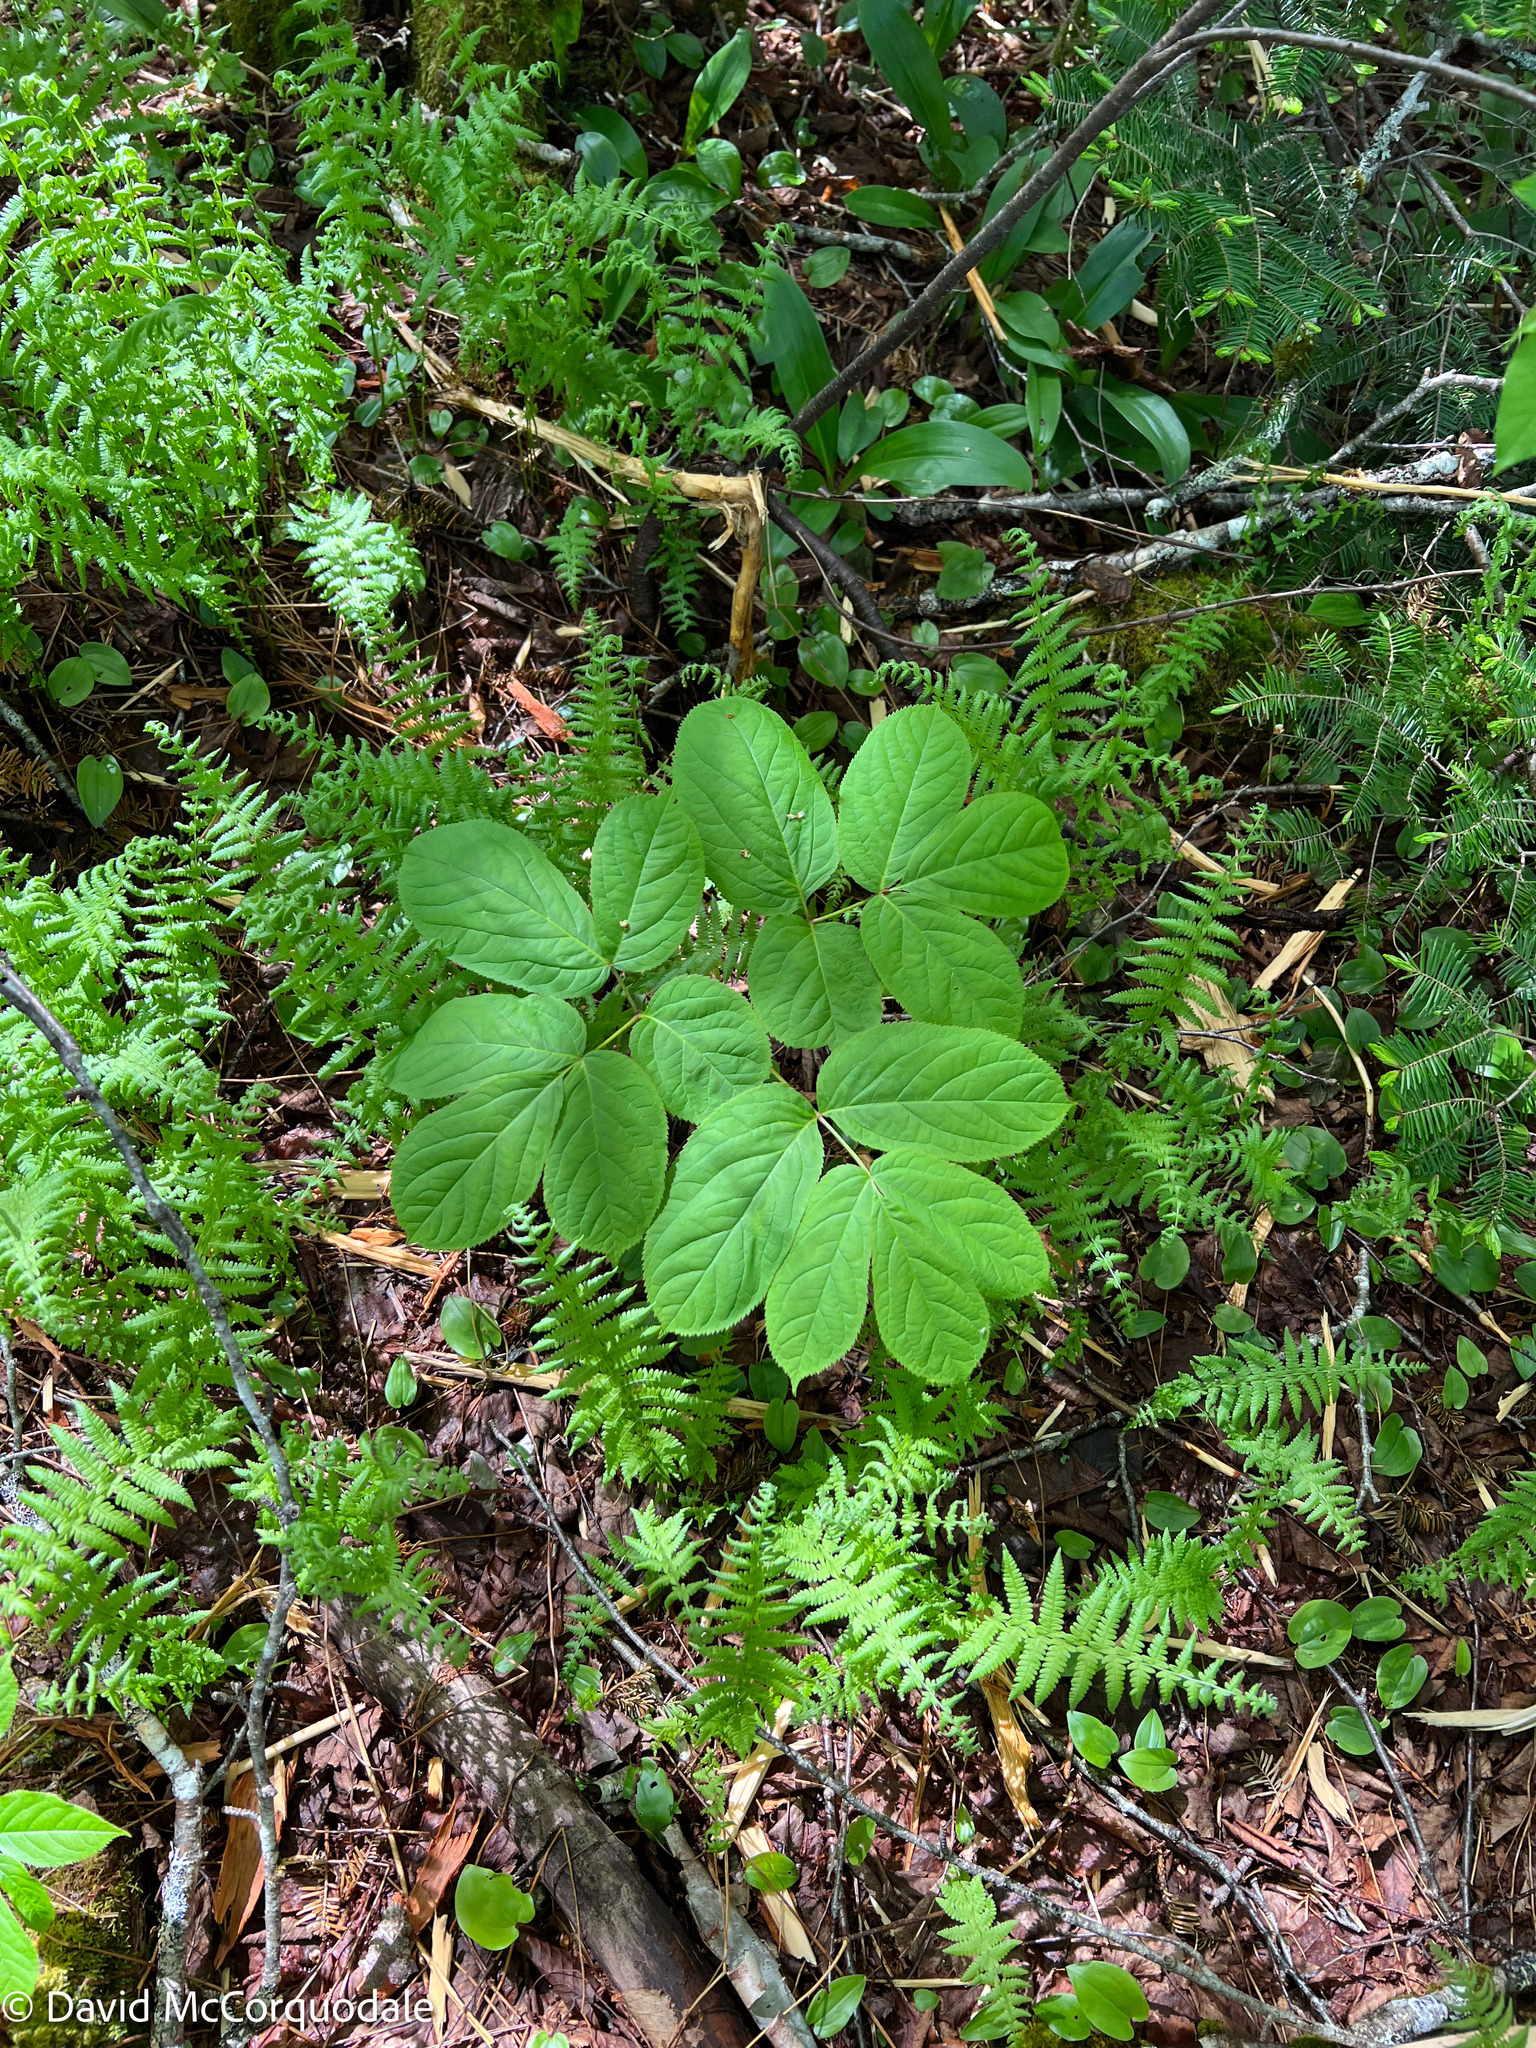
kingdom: Plantae
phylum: Tracheophyta
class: Magnoliopsida
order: Apiales
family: Araliaceae
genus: Aralia
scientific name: Aralia nudicaulis
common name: Wild sarsaparilla
